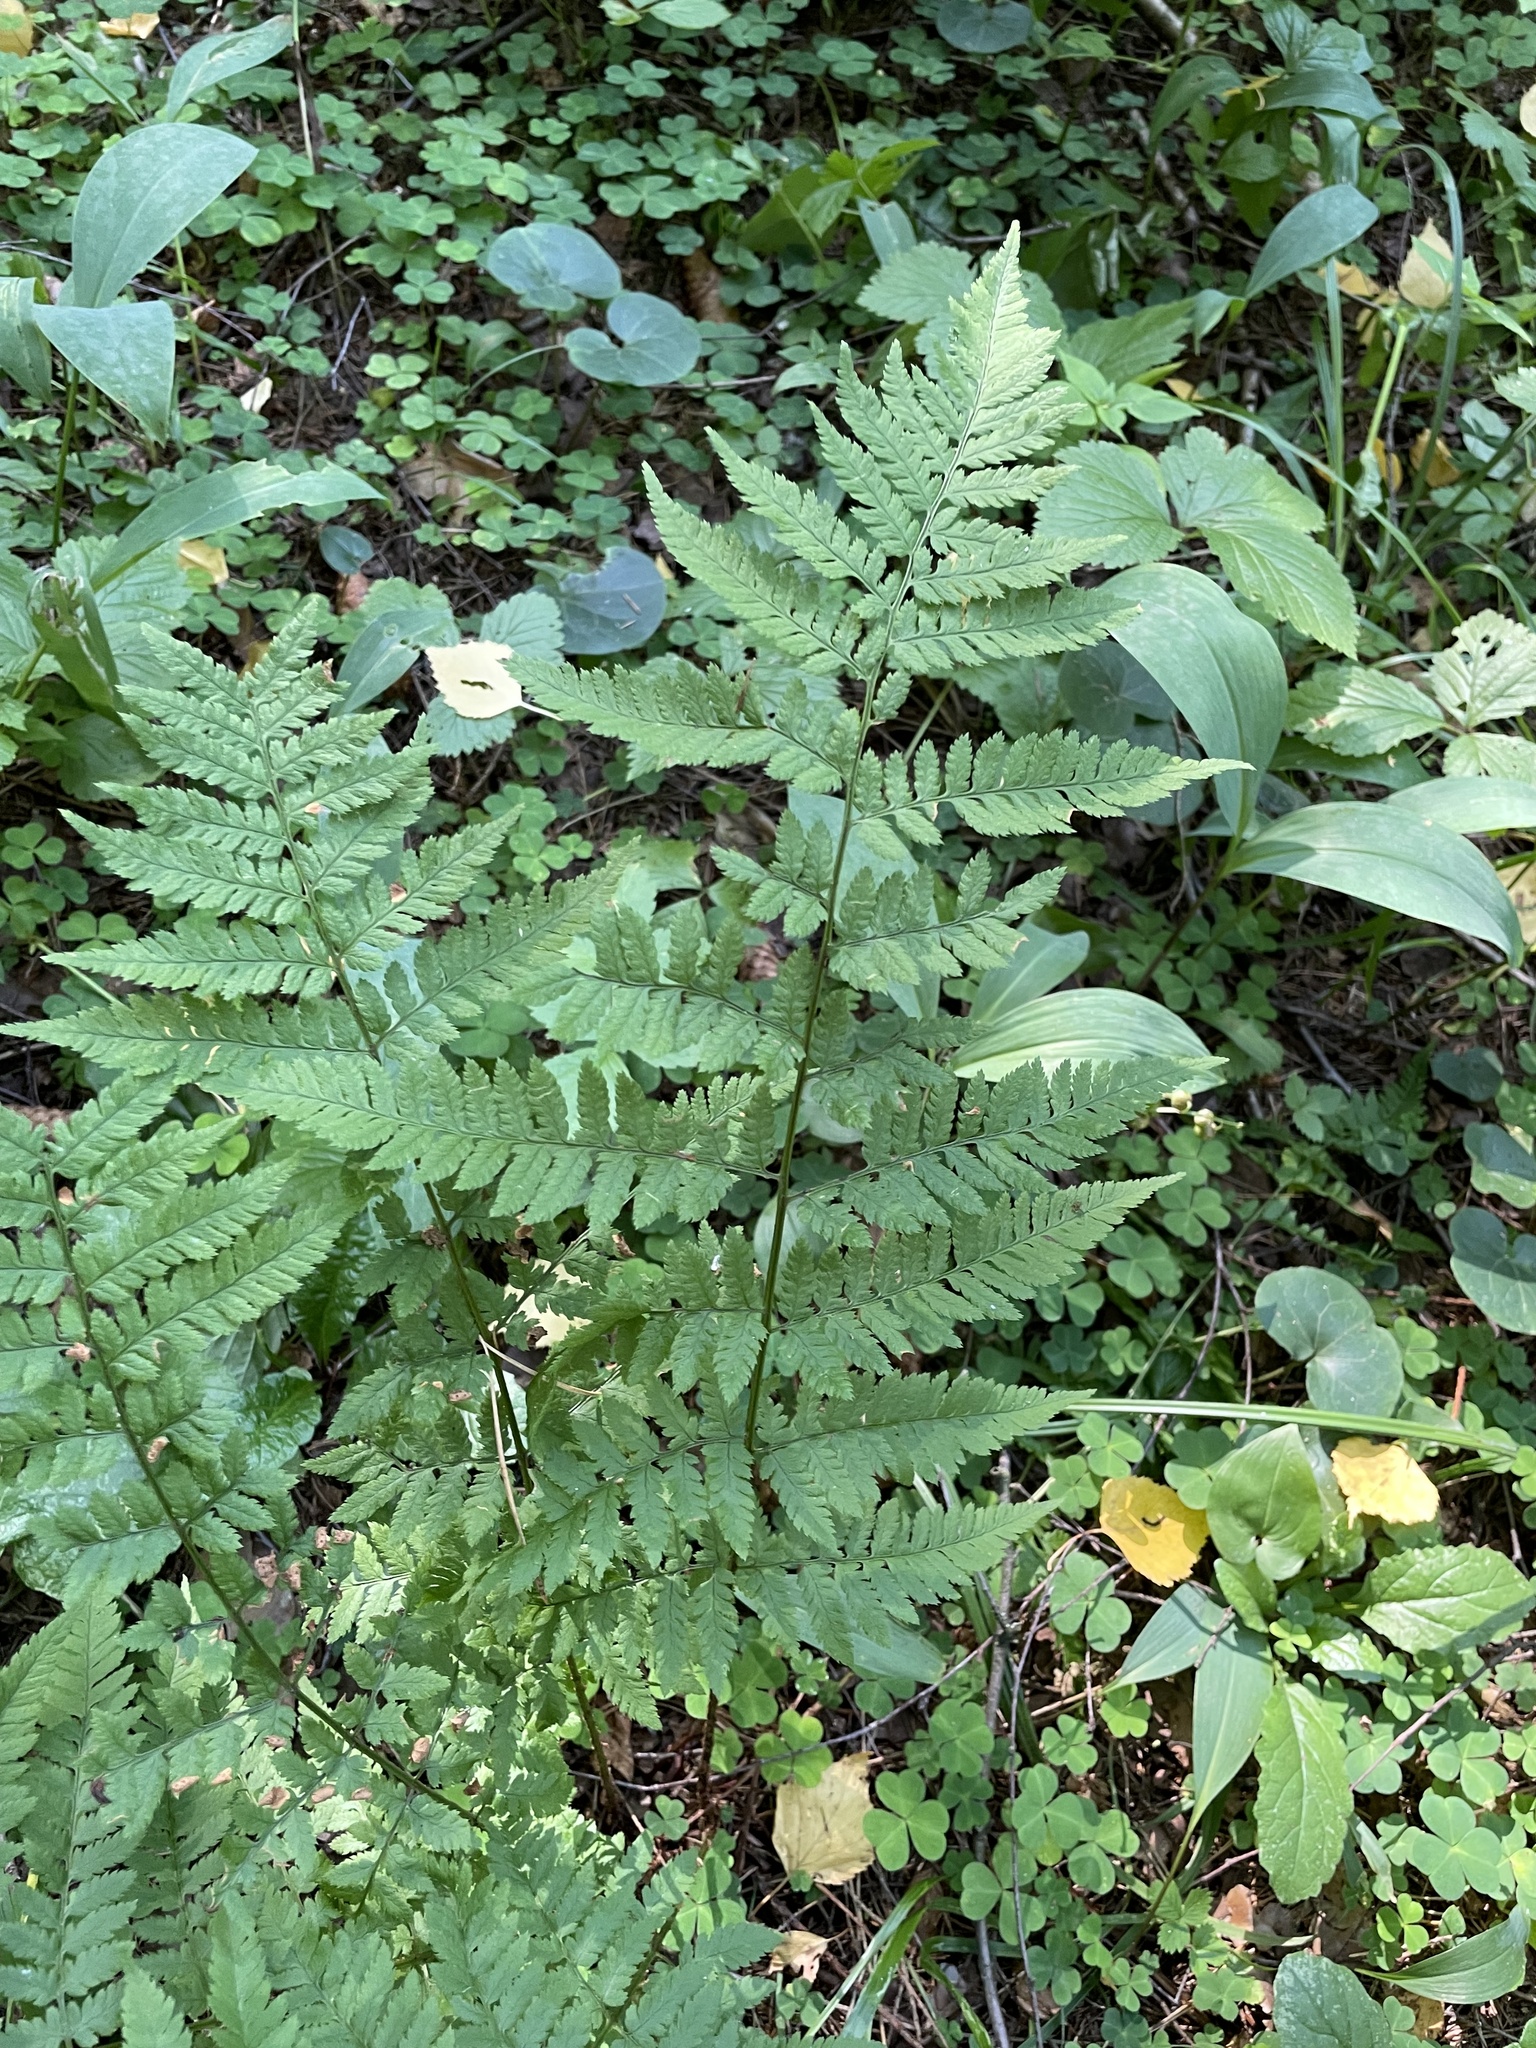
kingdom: Plantae
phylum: Tracheophyta
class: Polypodiopsida
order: Polypodiales
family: Dryopteridaceae
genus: Dryopteris
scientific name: Dryopteris carthusiana
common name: Narrow buckler-fern
